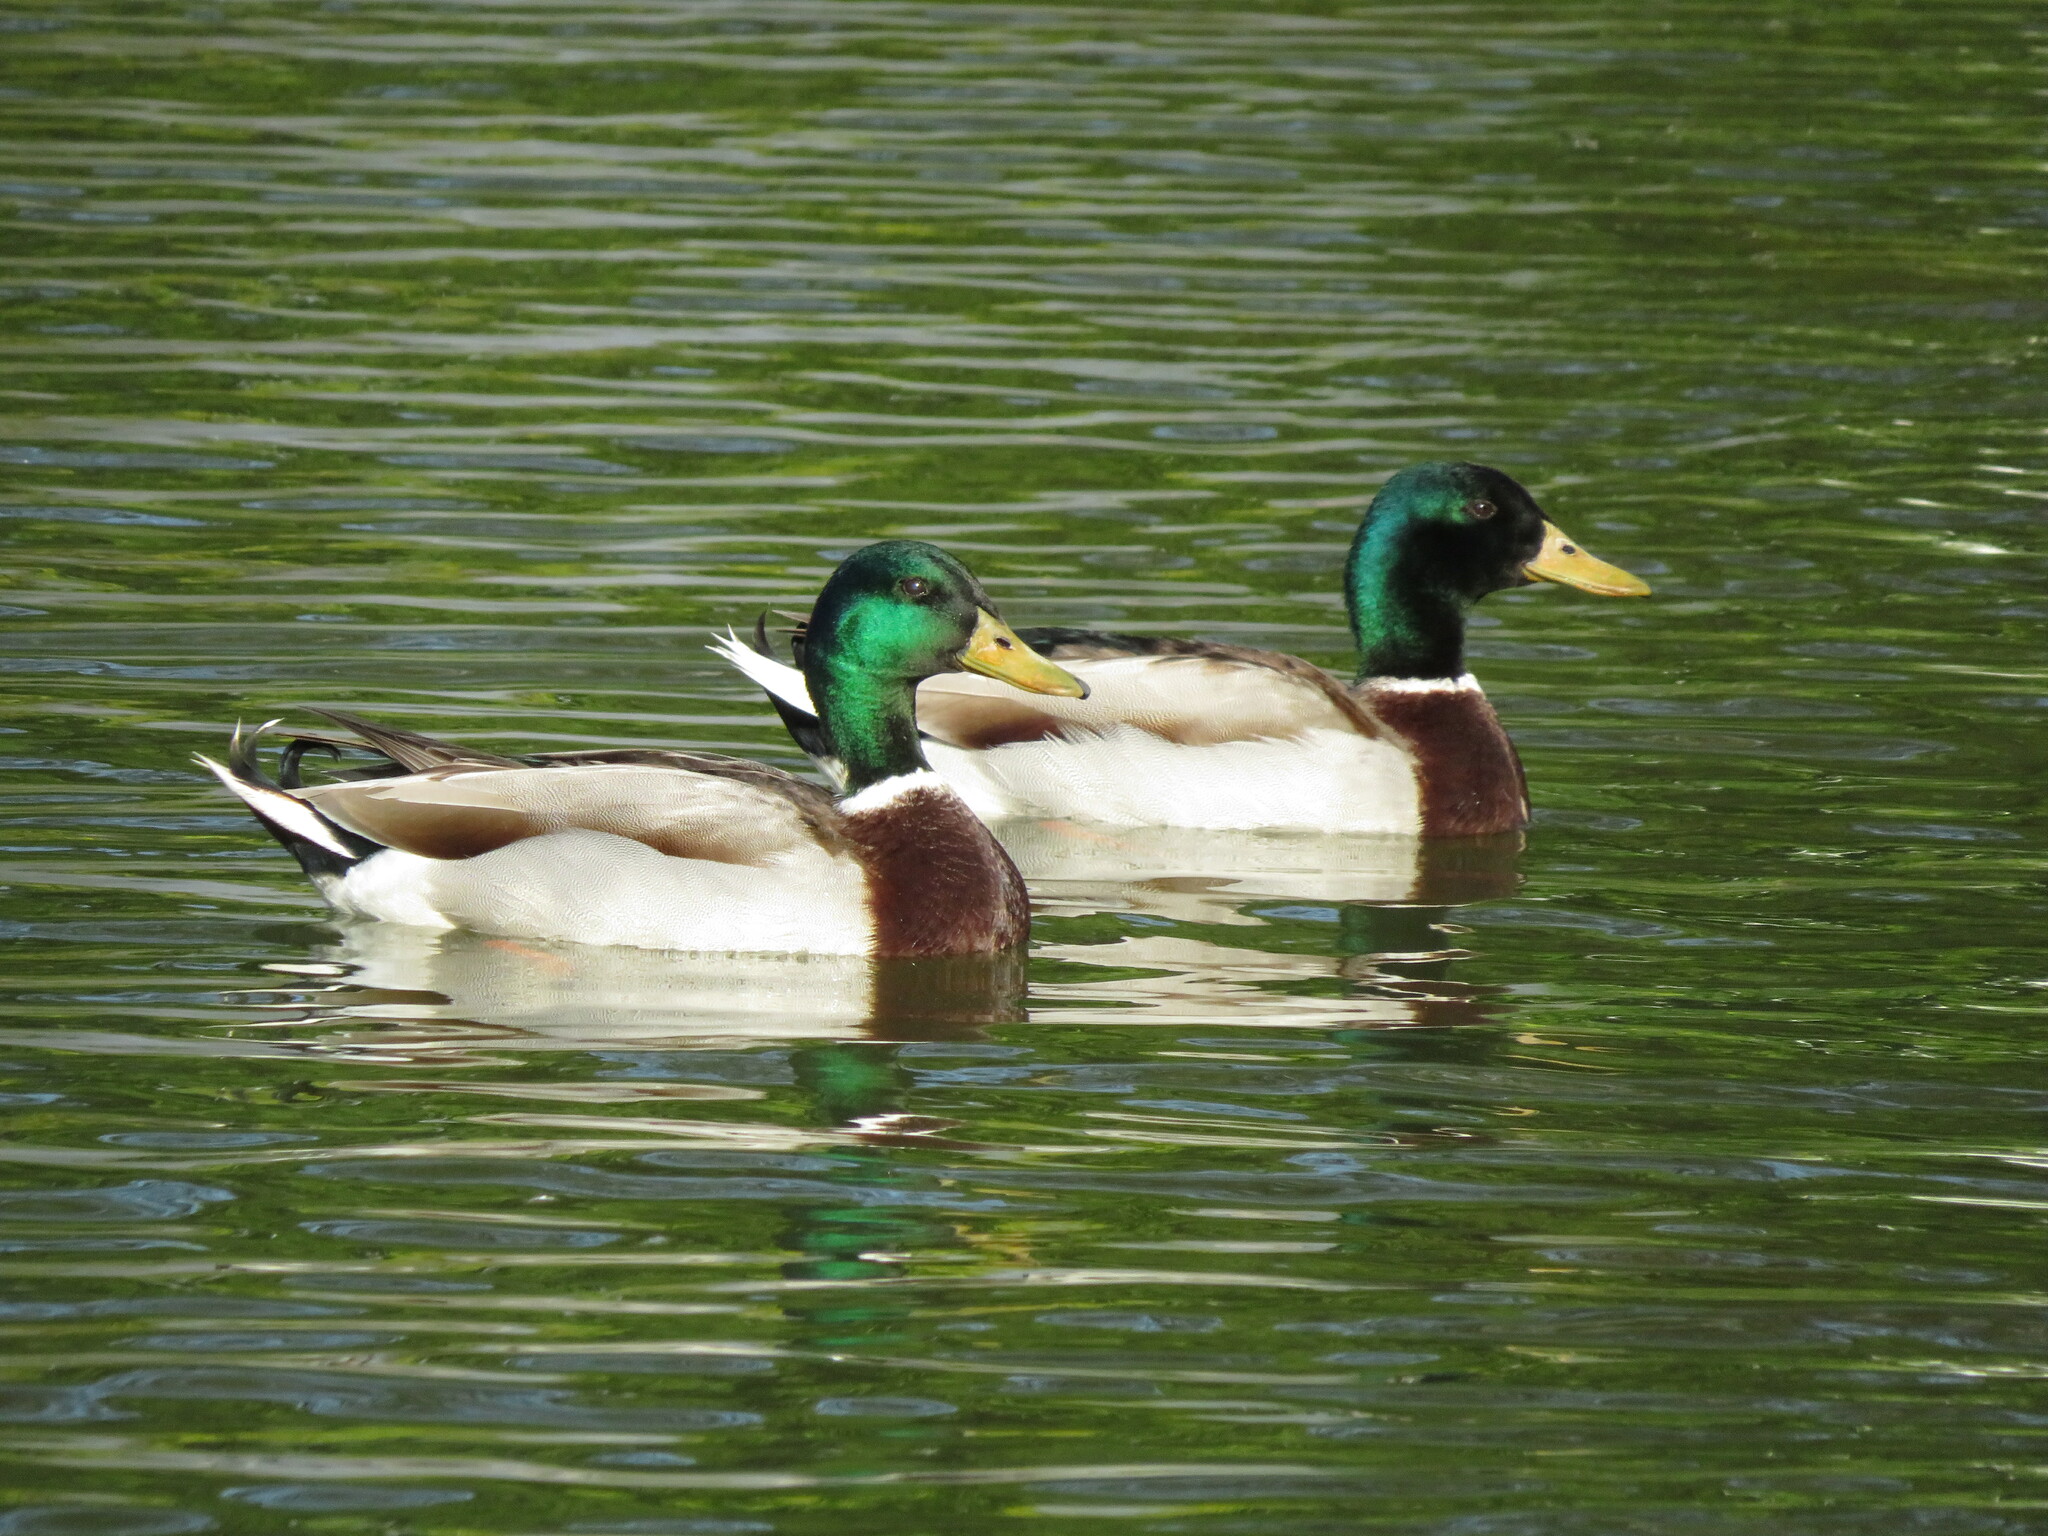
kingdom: Animalia
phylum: Chordata
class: Aves
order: Anseriformes
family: Anatidae
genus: Anas
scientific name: Anas platyrhynchos
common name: Mallard
